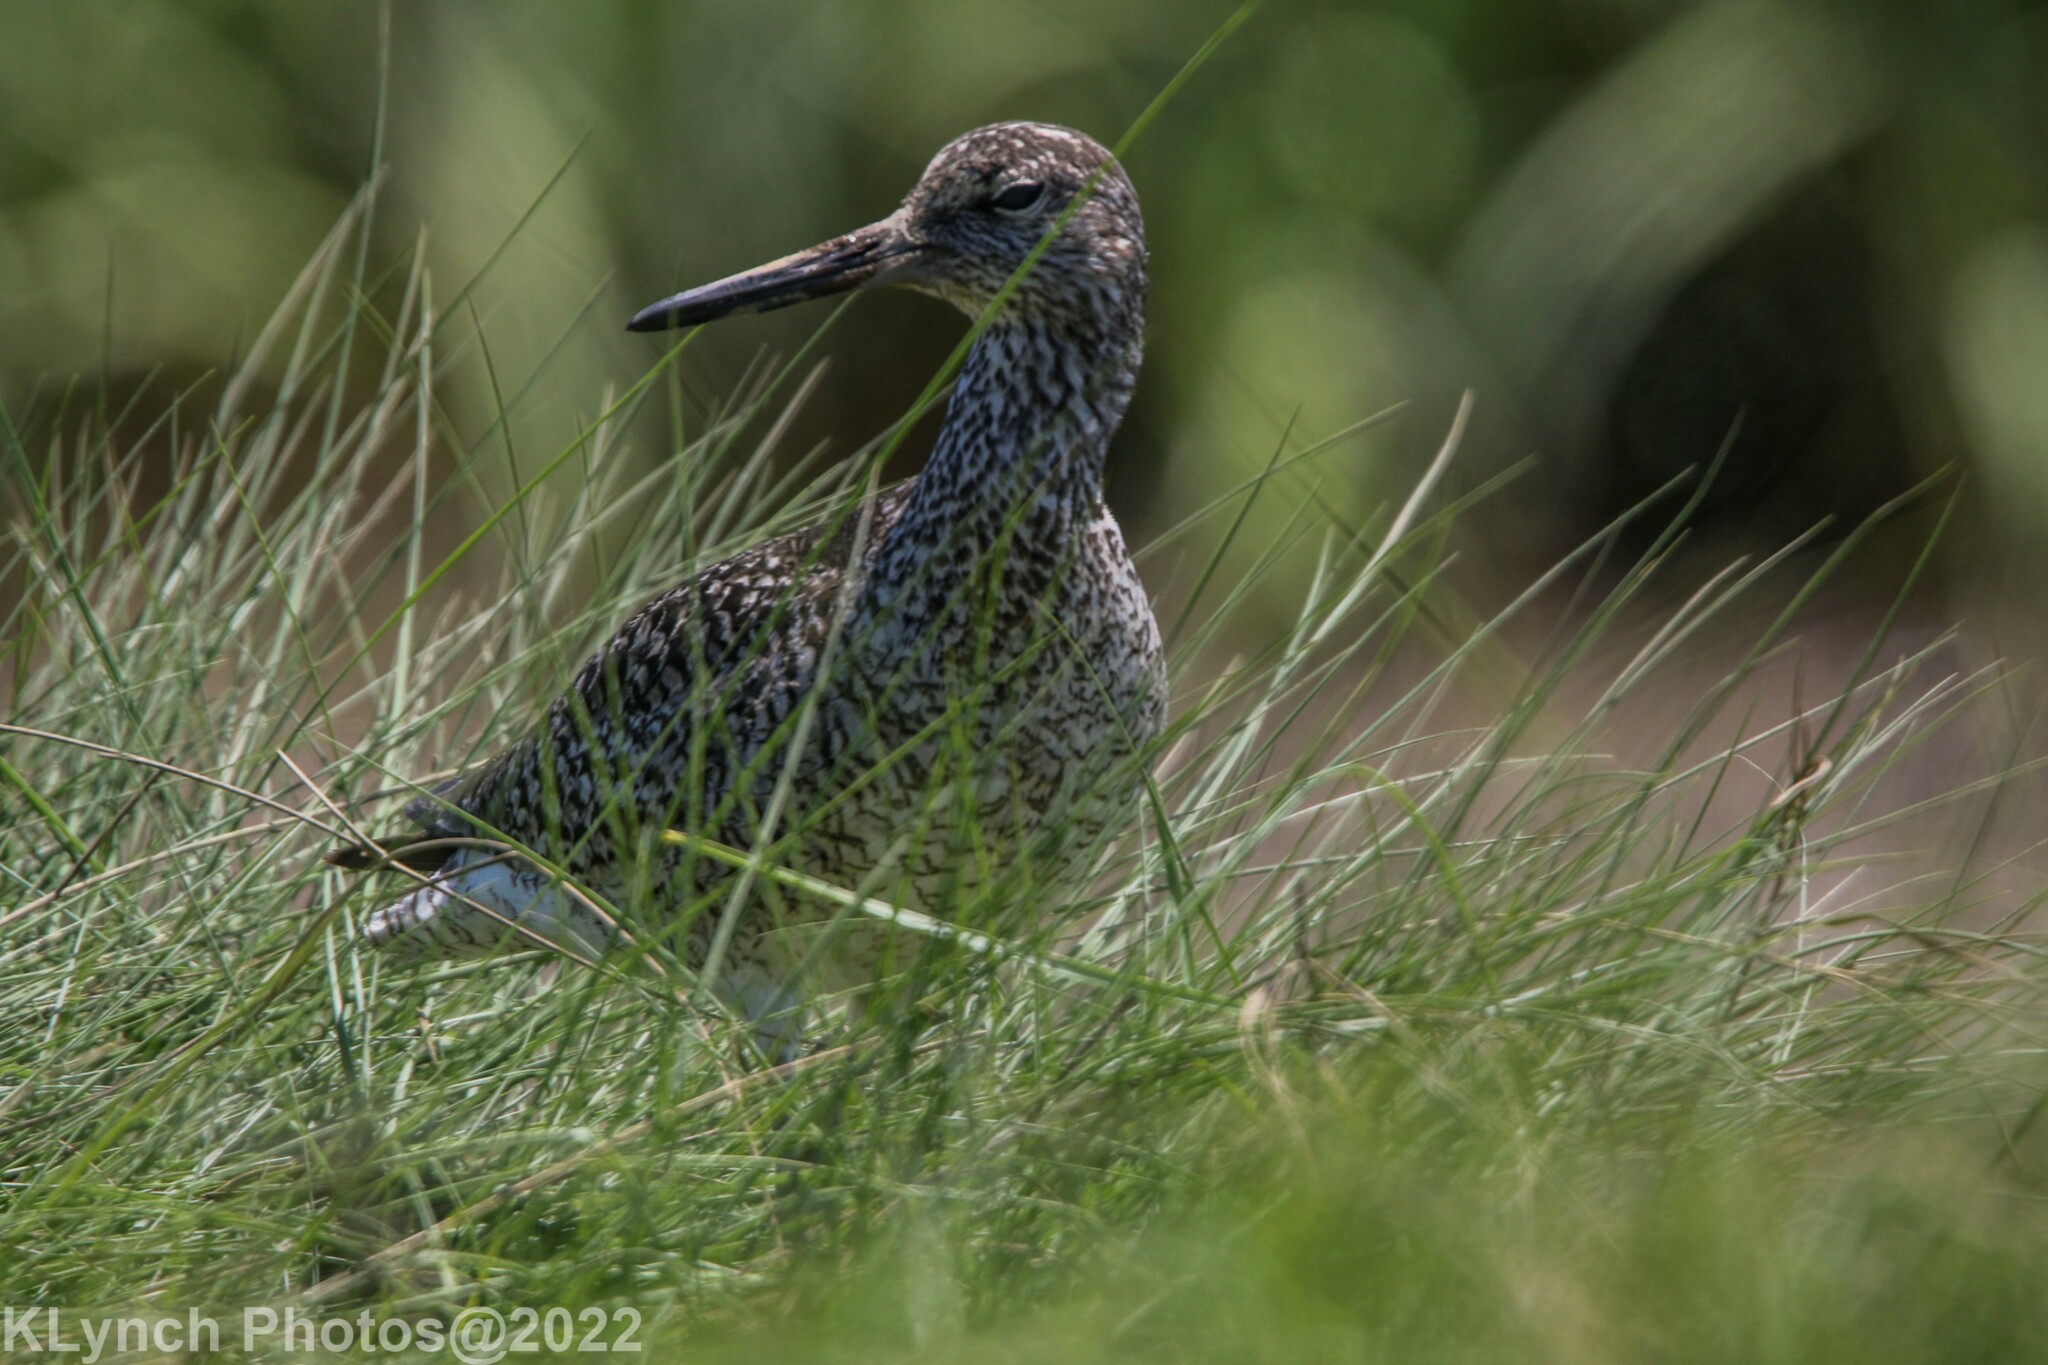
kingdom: Animalia
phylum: Chordata
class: Aves
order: Charadriiformes
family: Scolopacidae
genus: Tringa
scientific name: Tringa semipalmata
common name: Willet
